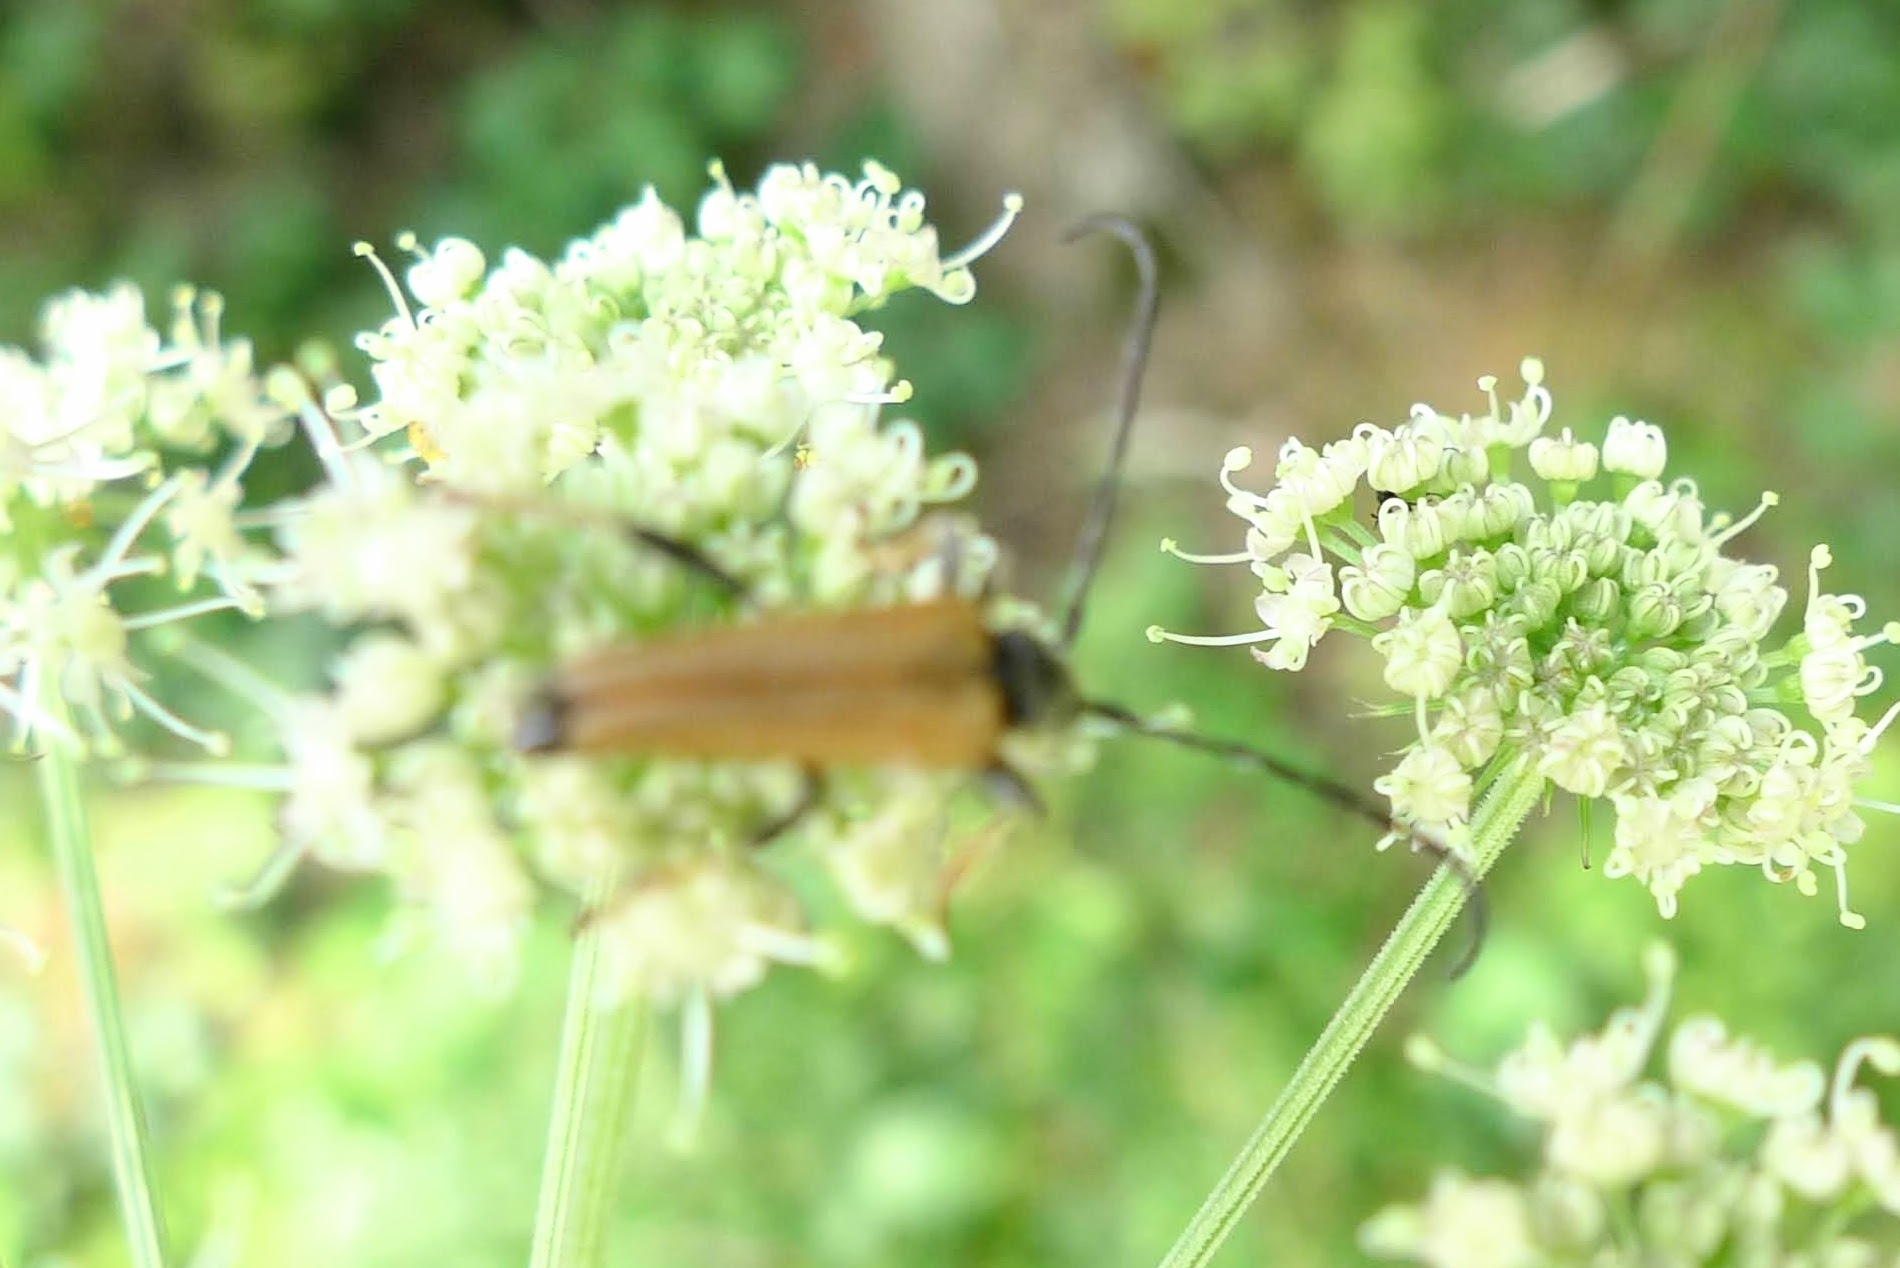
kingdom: Animalia
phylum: Arthropoda
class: Insecta
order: Coleoptera
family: Cerambycidae
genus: Stictoleptura
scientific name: Stictoleptura rubra
